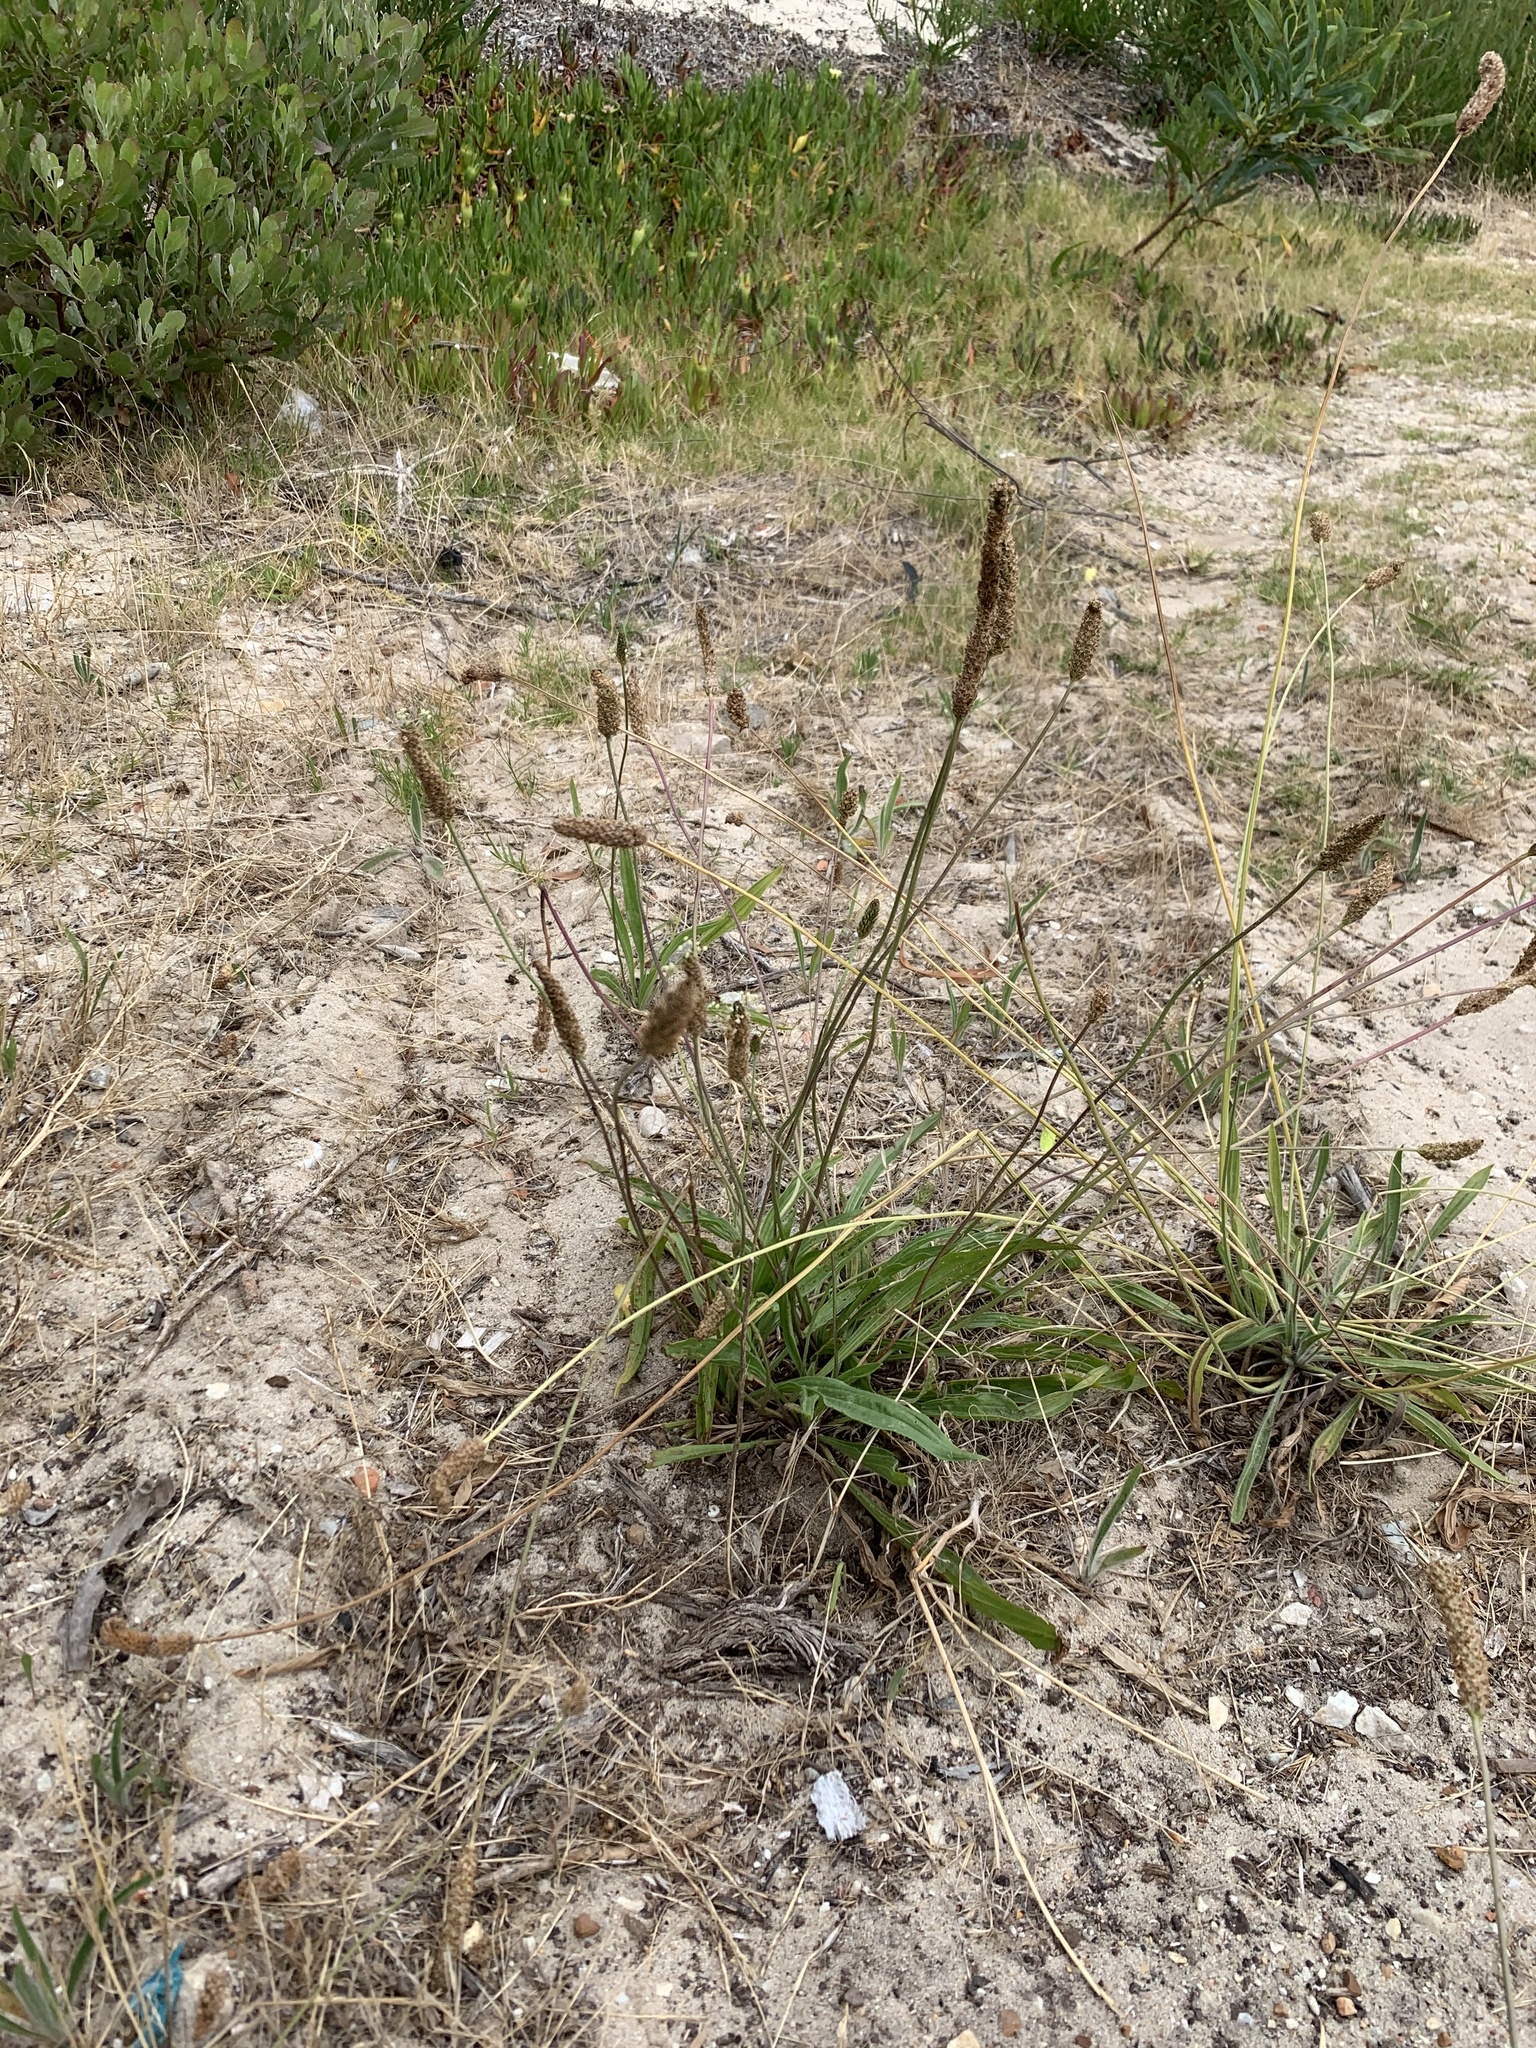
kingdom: Plantae
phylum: Tracheophyta
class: Magnoliopsida
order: Lamiales
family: Plantaginaceae
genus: Plantago
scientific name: Plantago lanceolata
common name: Ribwort plantain
